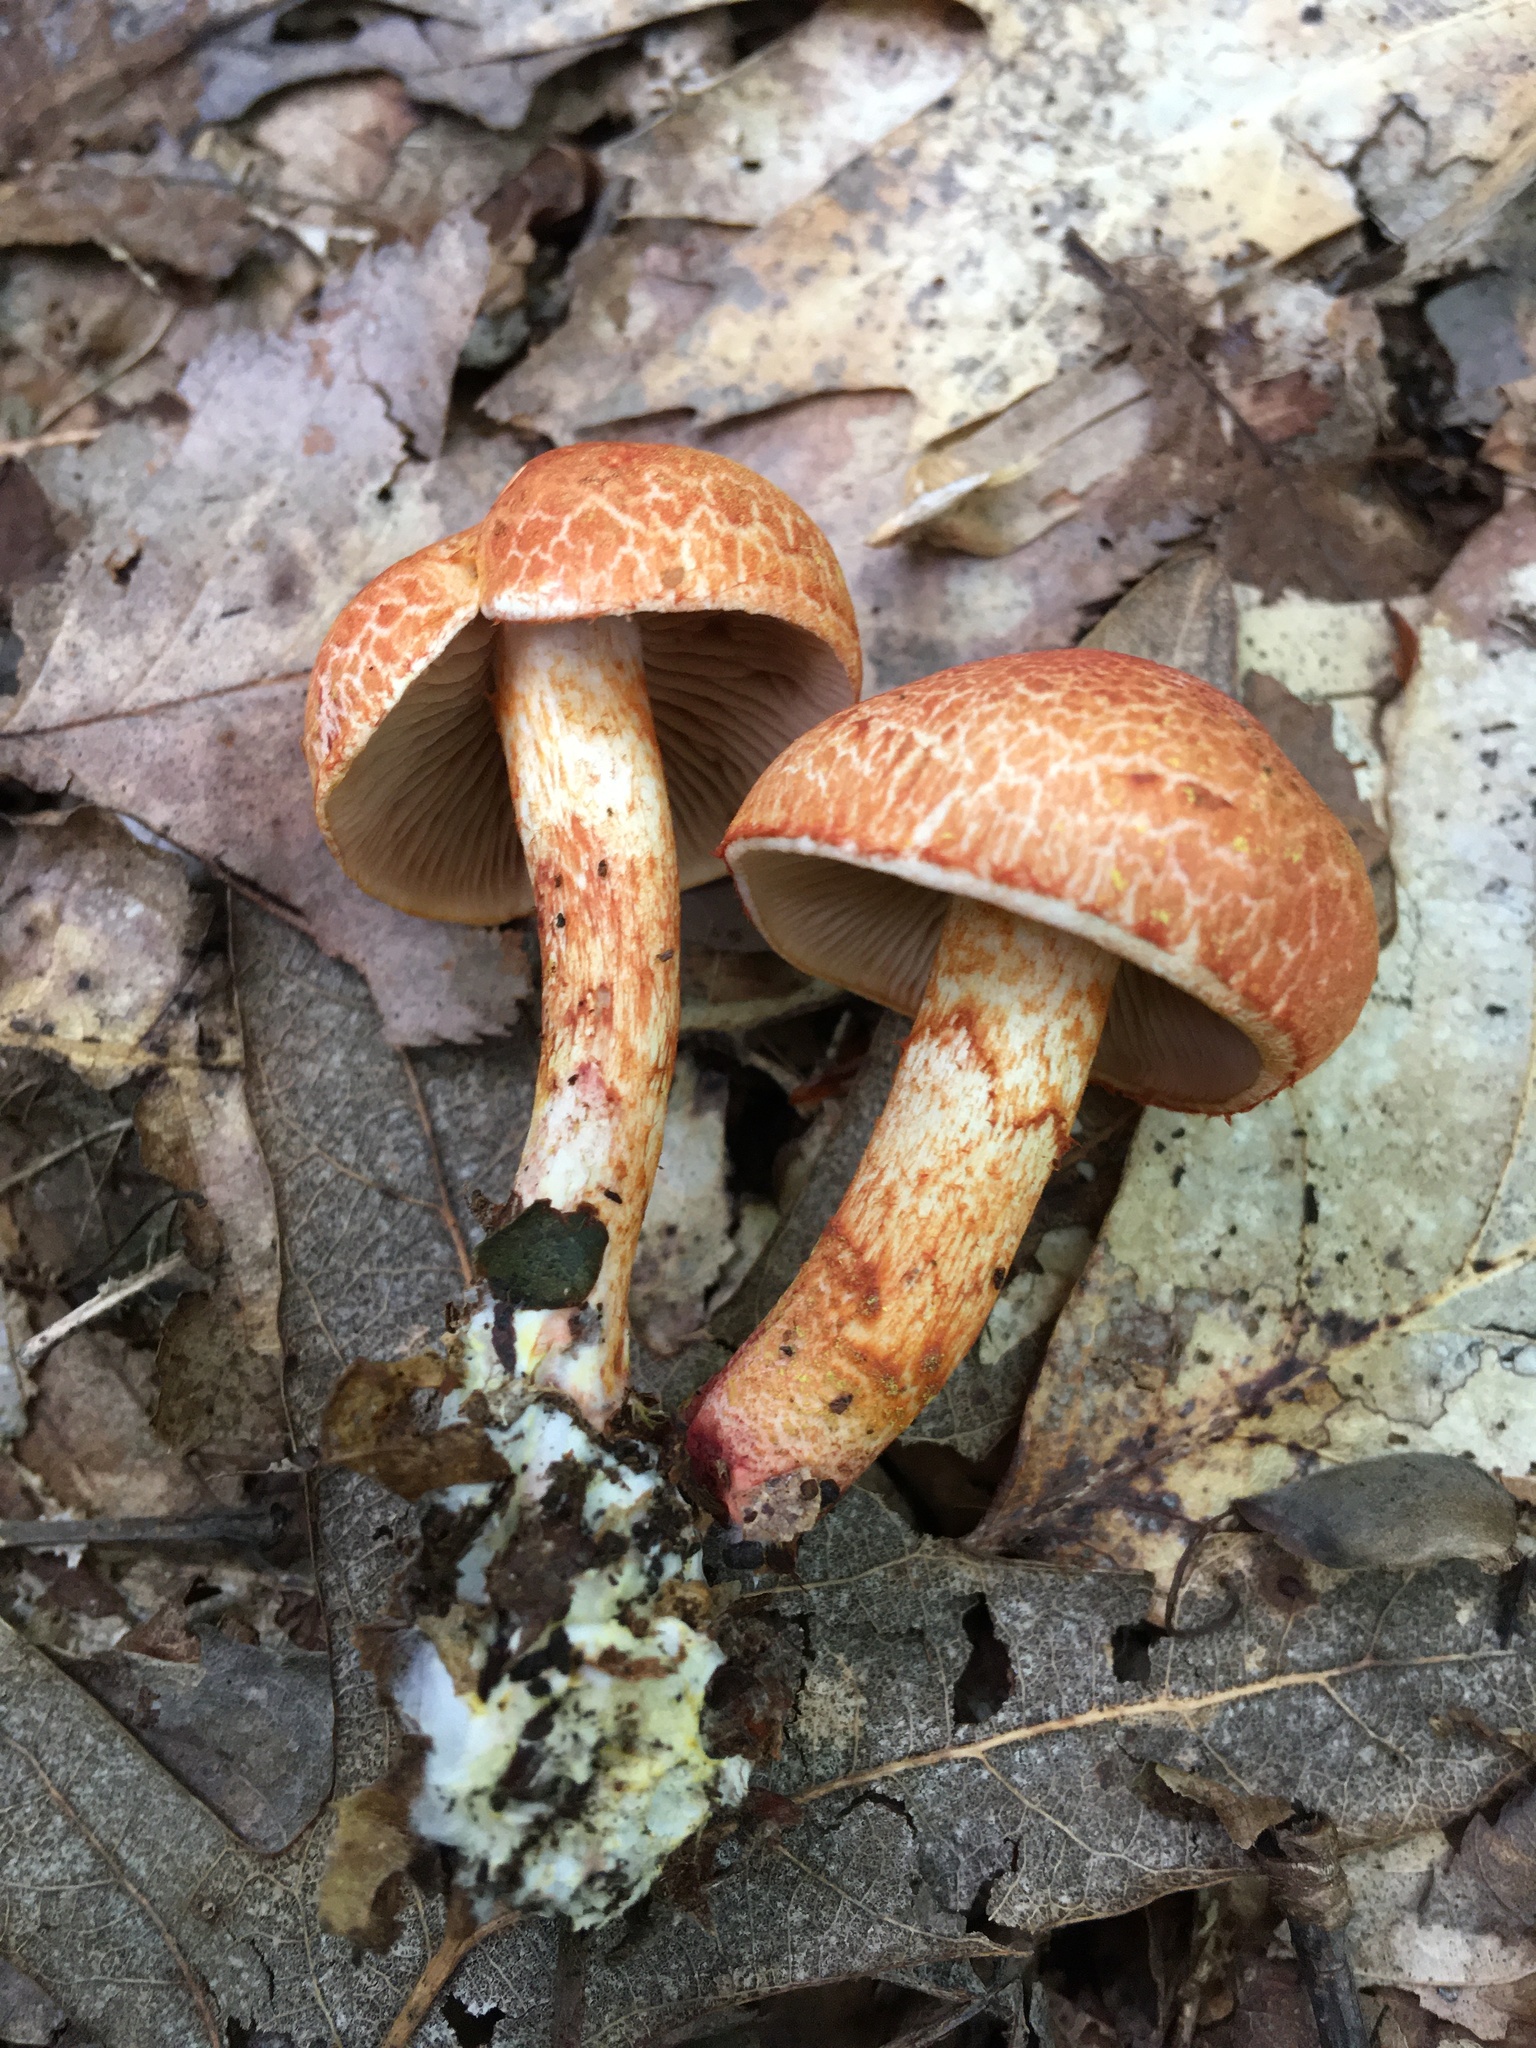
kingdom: Fungi
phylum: Basidiomycota
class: Agaricomycetes
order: Agaricales
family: Cortinariaceae
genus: Cortinarius
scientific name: Cortinarius bolaris
